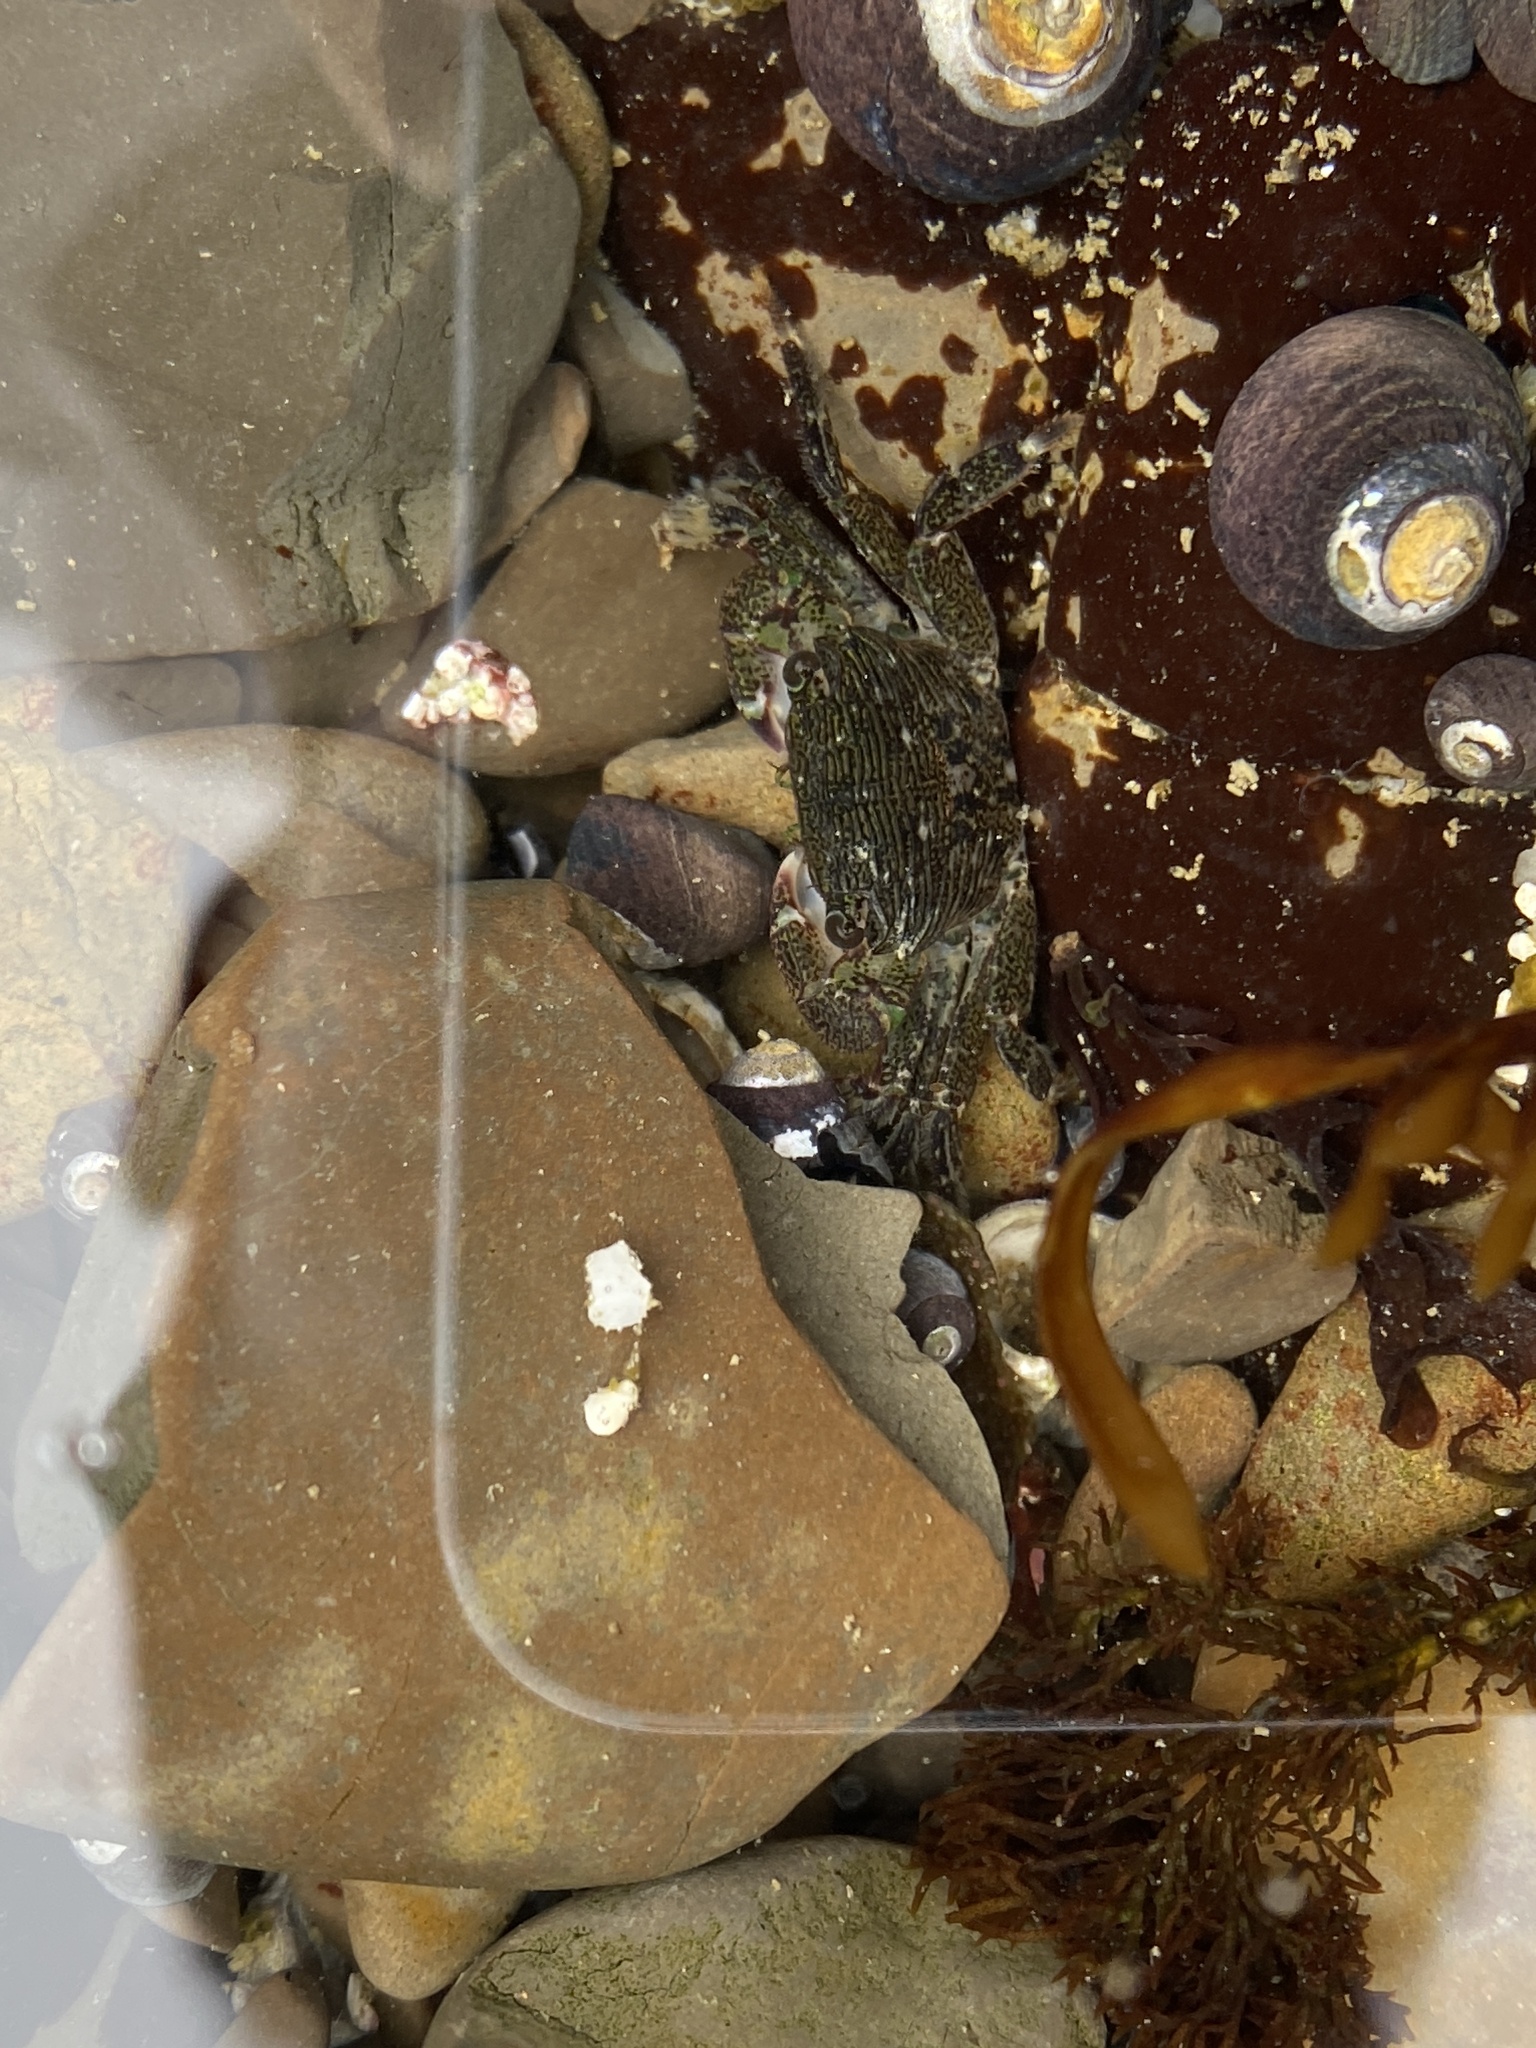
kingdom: Animalia
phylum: Arthropoda
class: Malacostraca
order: Decapoda
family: Grapsidae
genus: Pachygrapsus
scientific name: Pachygrapsus crassipes
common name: Striped shore crab
